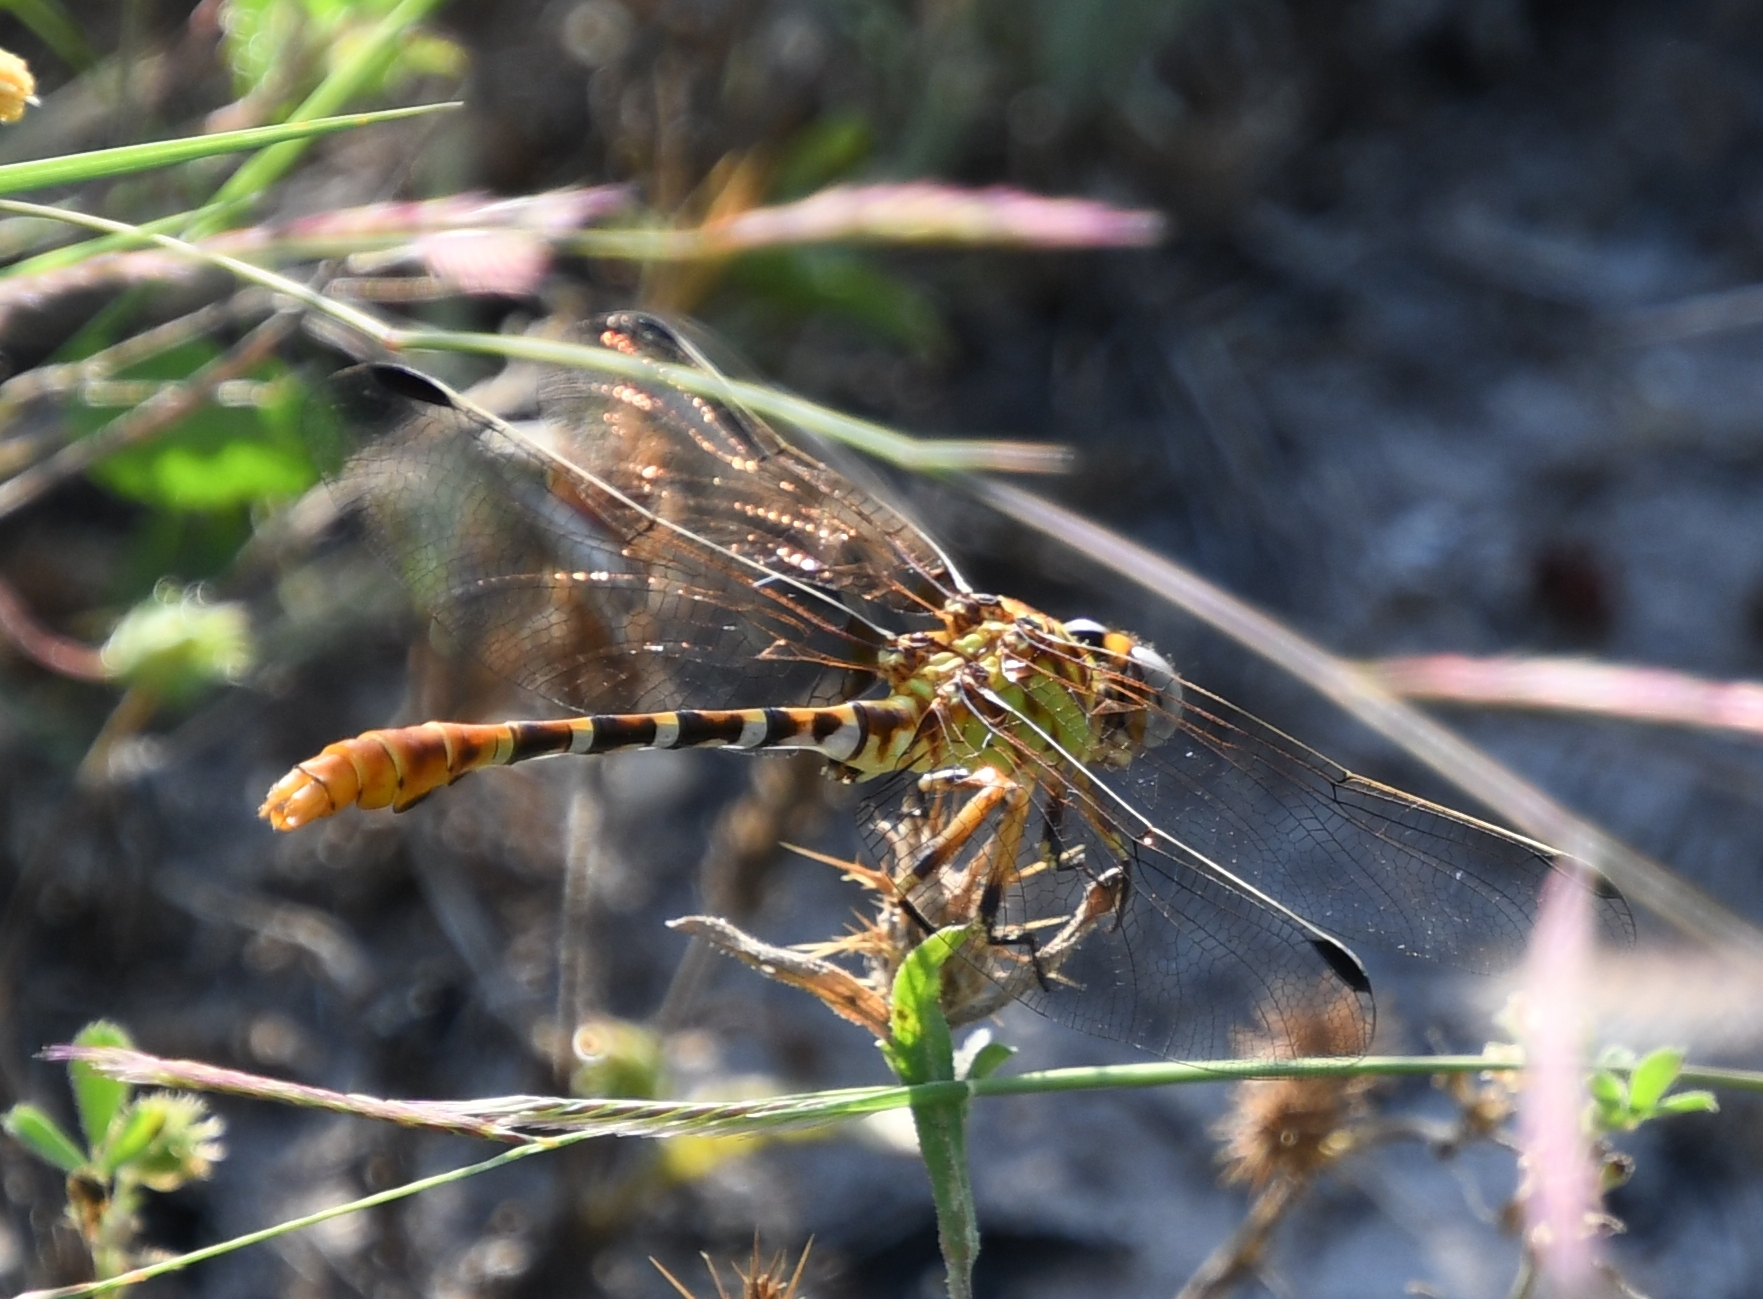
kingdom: Animalia
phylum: Arthropoda
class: Insecta
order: Odonata
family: Gomphidae
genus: Erpetogomphus
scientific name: Erpetogomphus designatus
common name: Eastern ringtail
